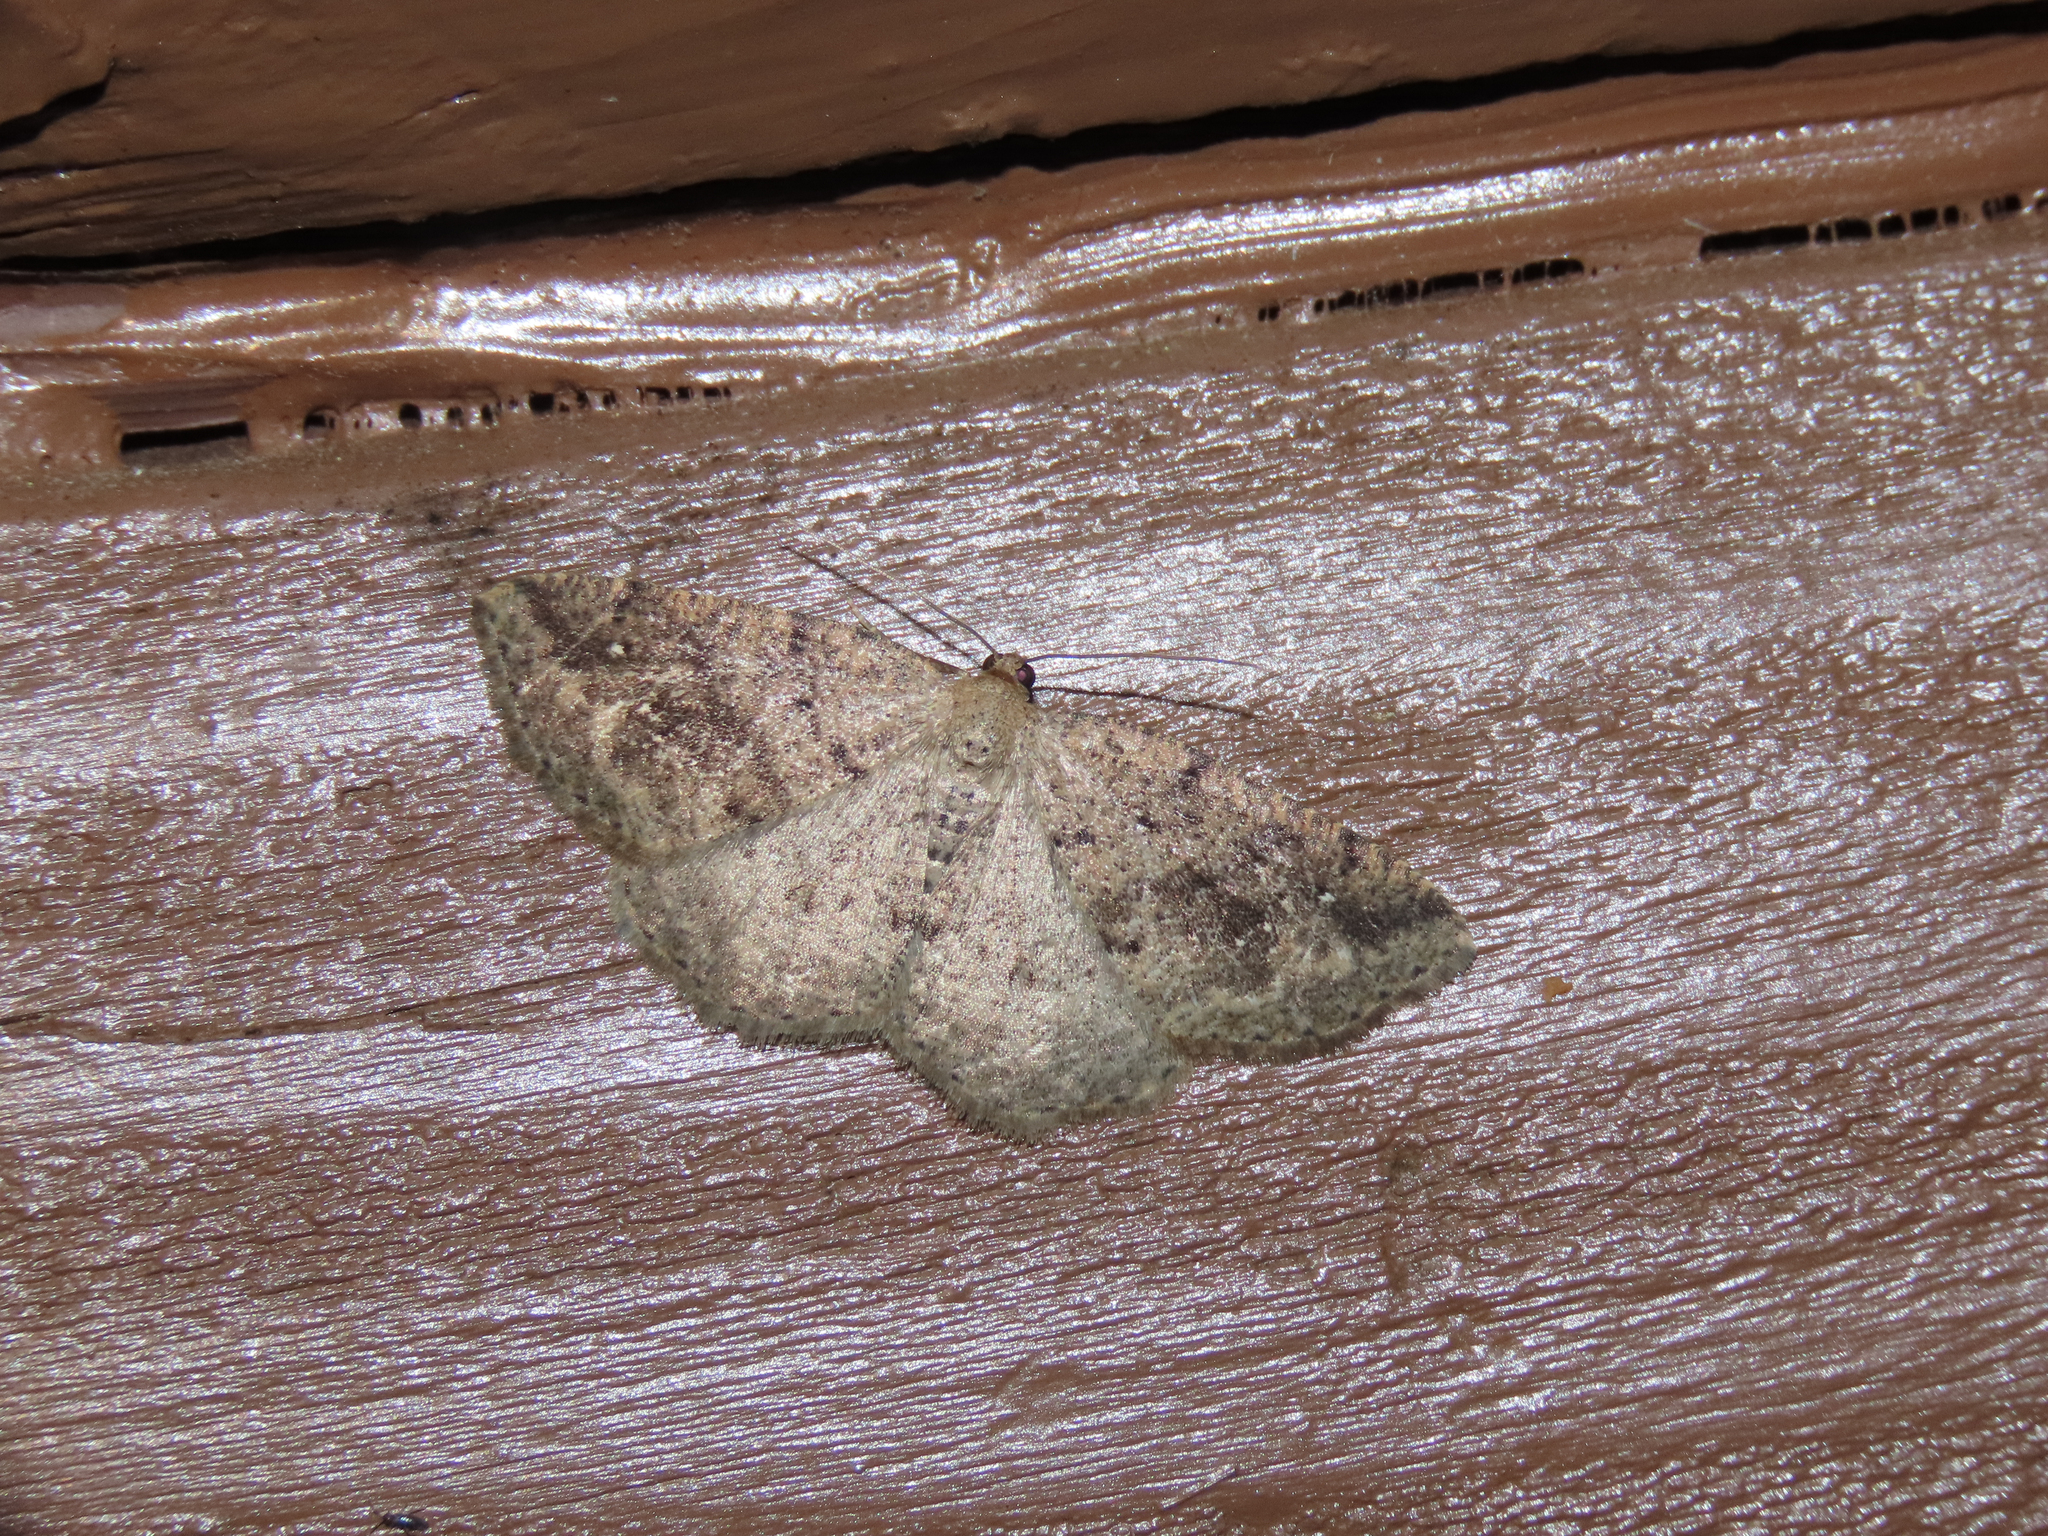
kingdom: Animalia
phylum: Arthropoda
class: Insecta
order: Lepidoptera
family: Geometridae
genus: Homochlodes
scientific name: Homochlodes fritillaria
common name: Pale homochlodes
